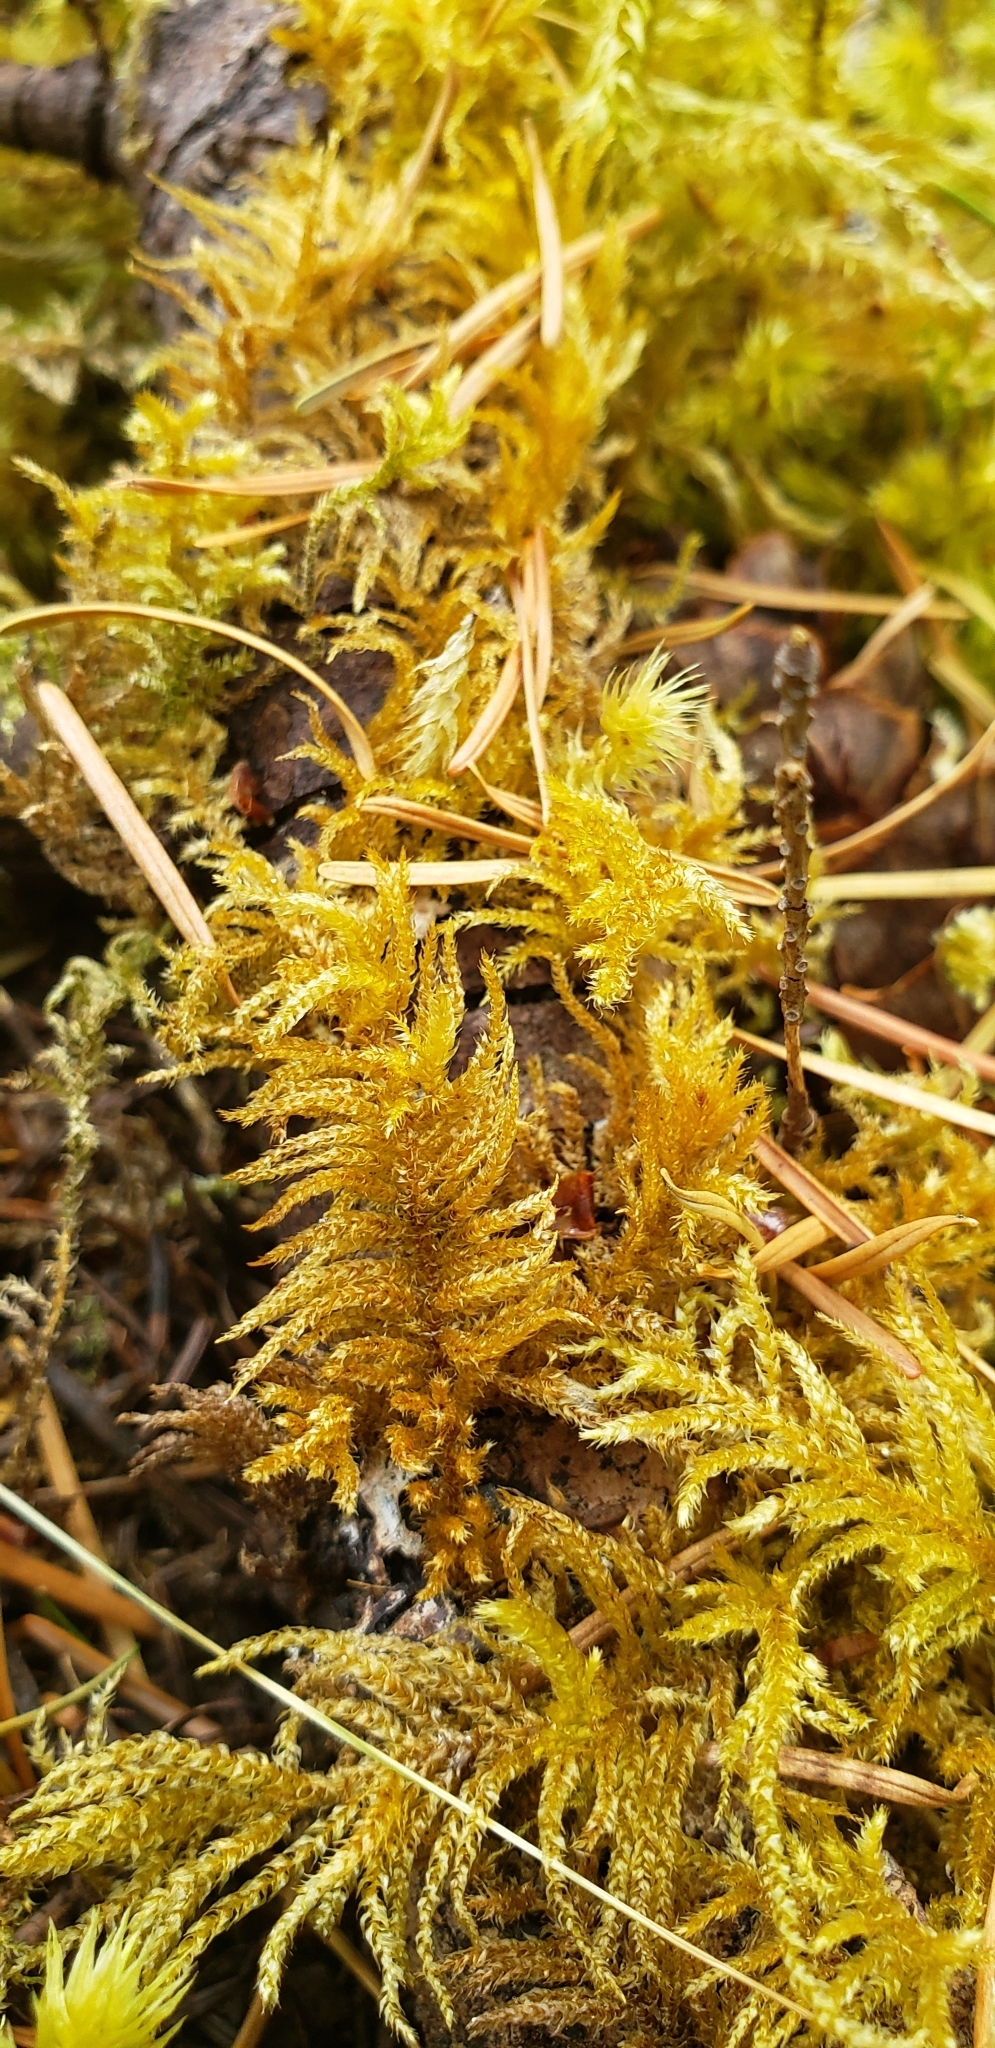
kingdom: Plantae
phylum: Bryophyta
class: Bryopsida
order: Hypnales
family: Brachytheciaceae
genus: Kindbergia
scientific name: Kindbergia oregana
